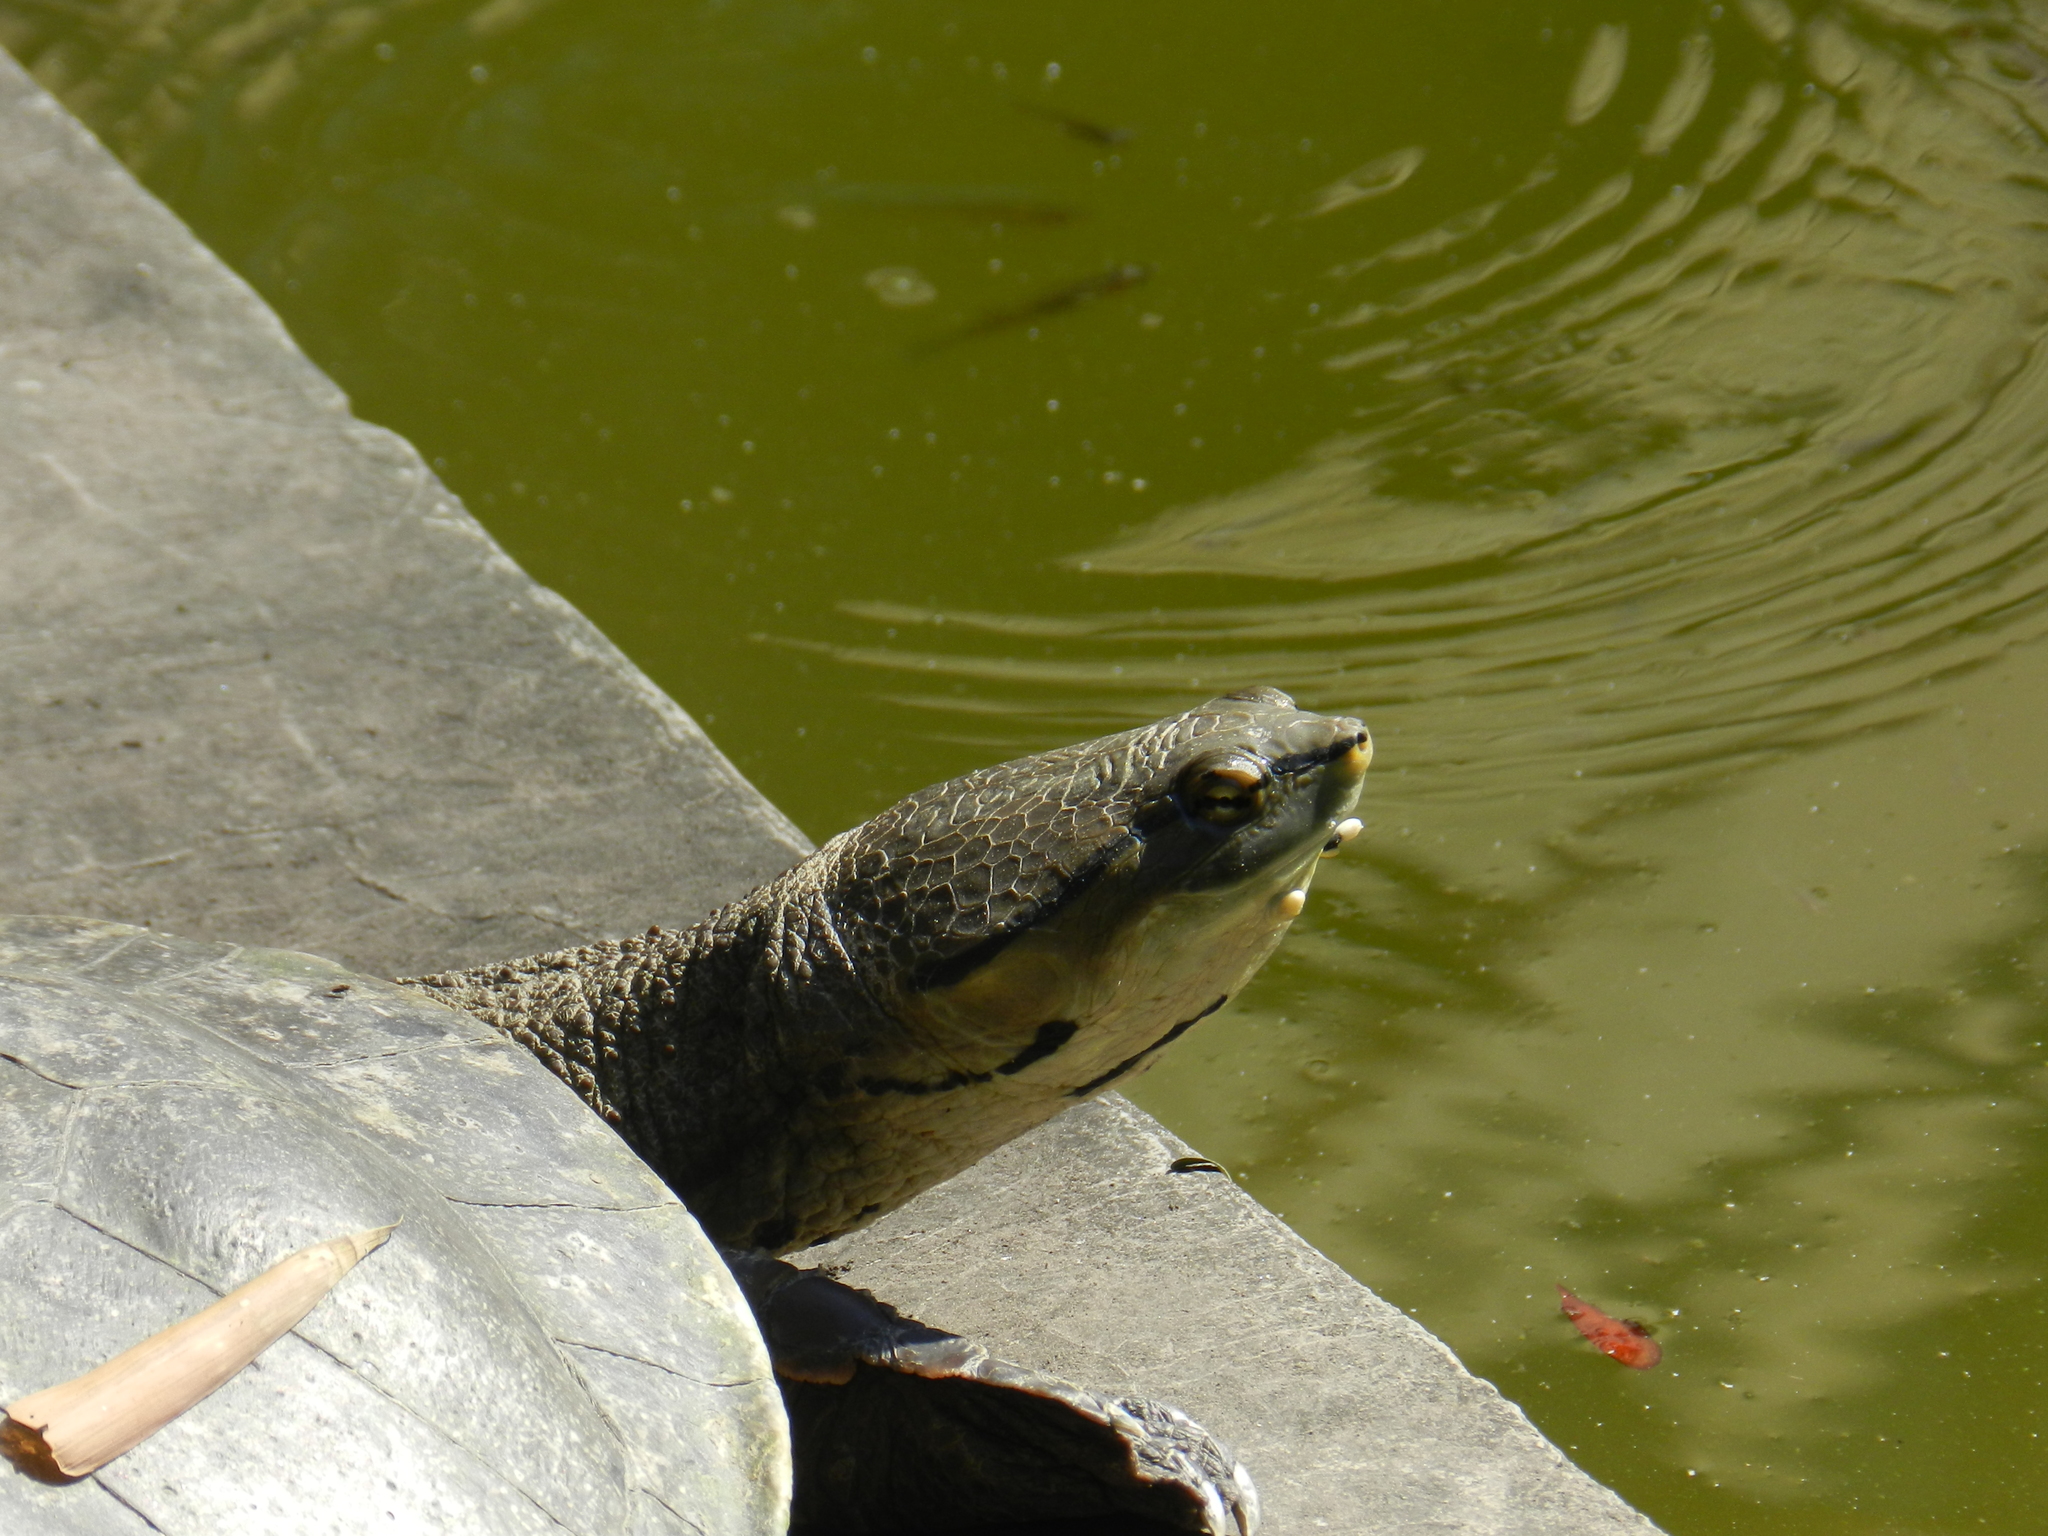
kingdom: Animalia
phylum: Chordata
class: Testudines
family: Chelidae
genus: Phrynops
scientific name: Phrynops hilarii
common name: Side-necked turtle of saint hillaire
